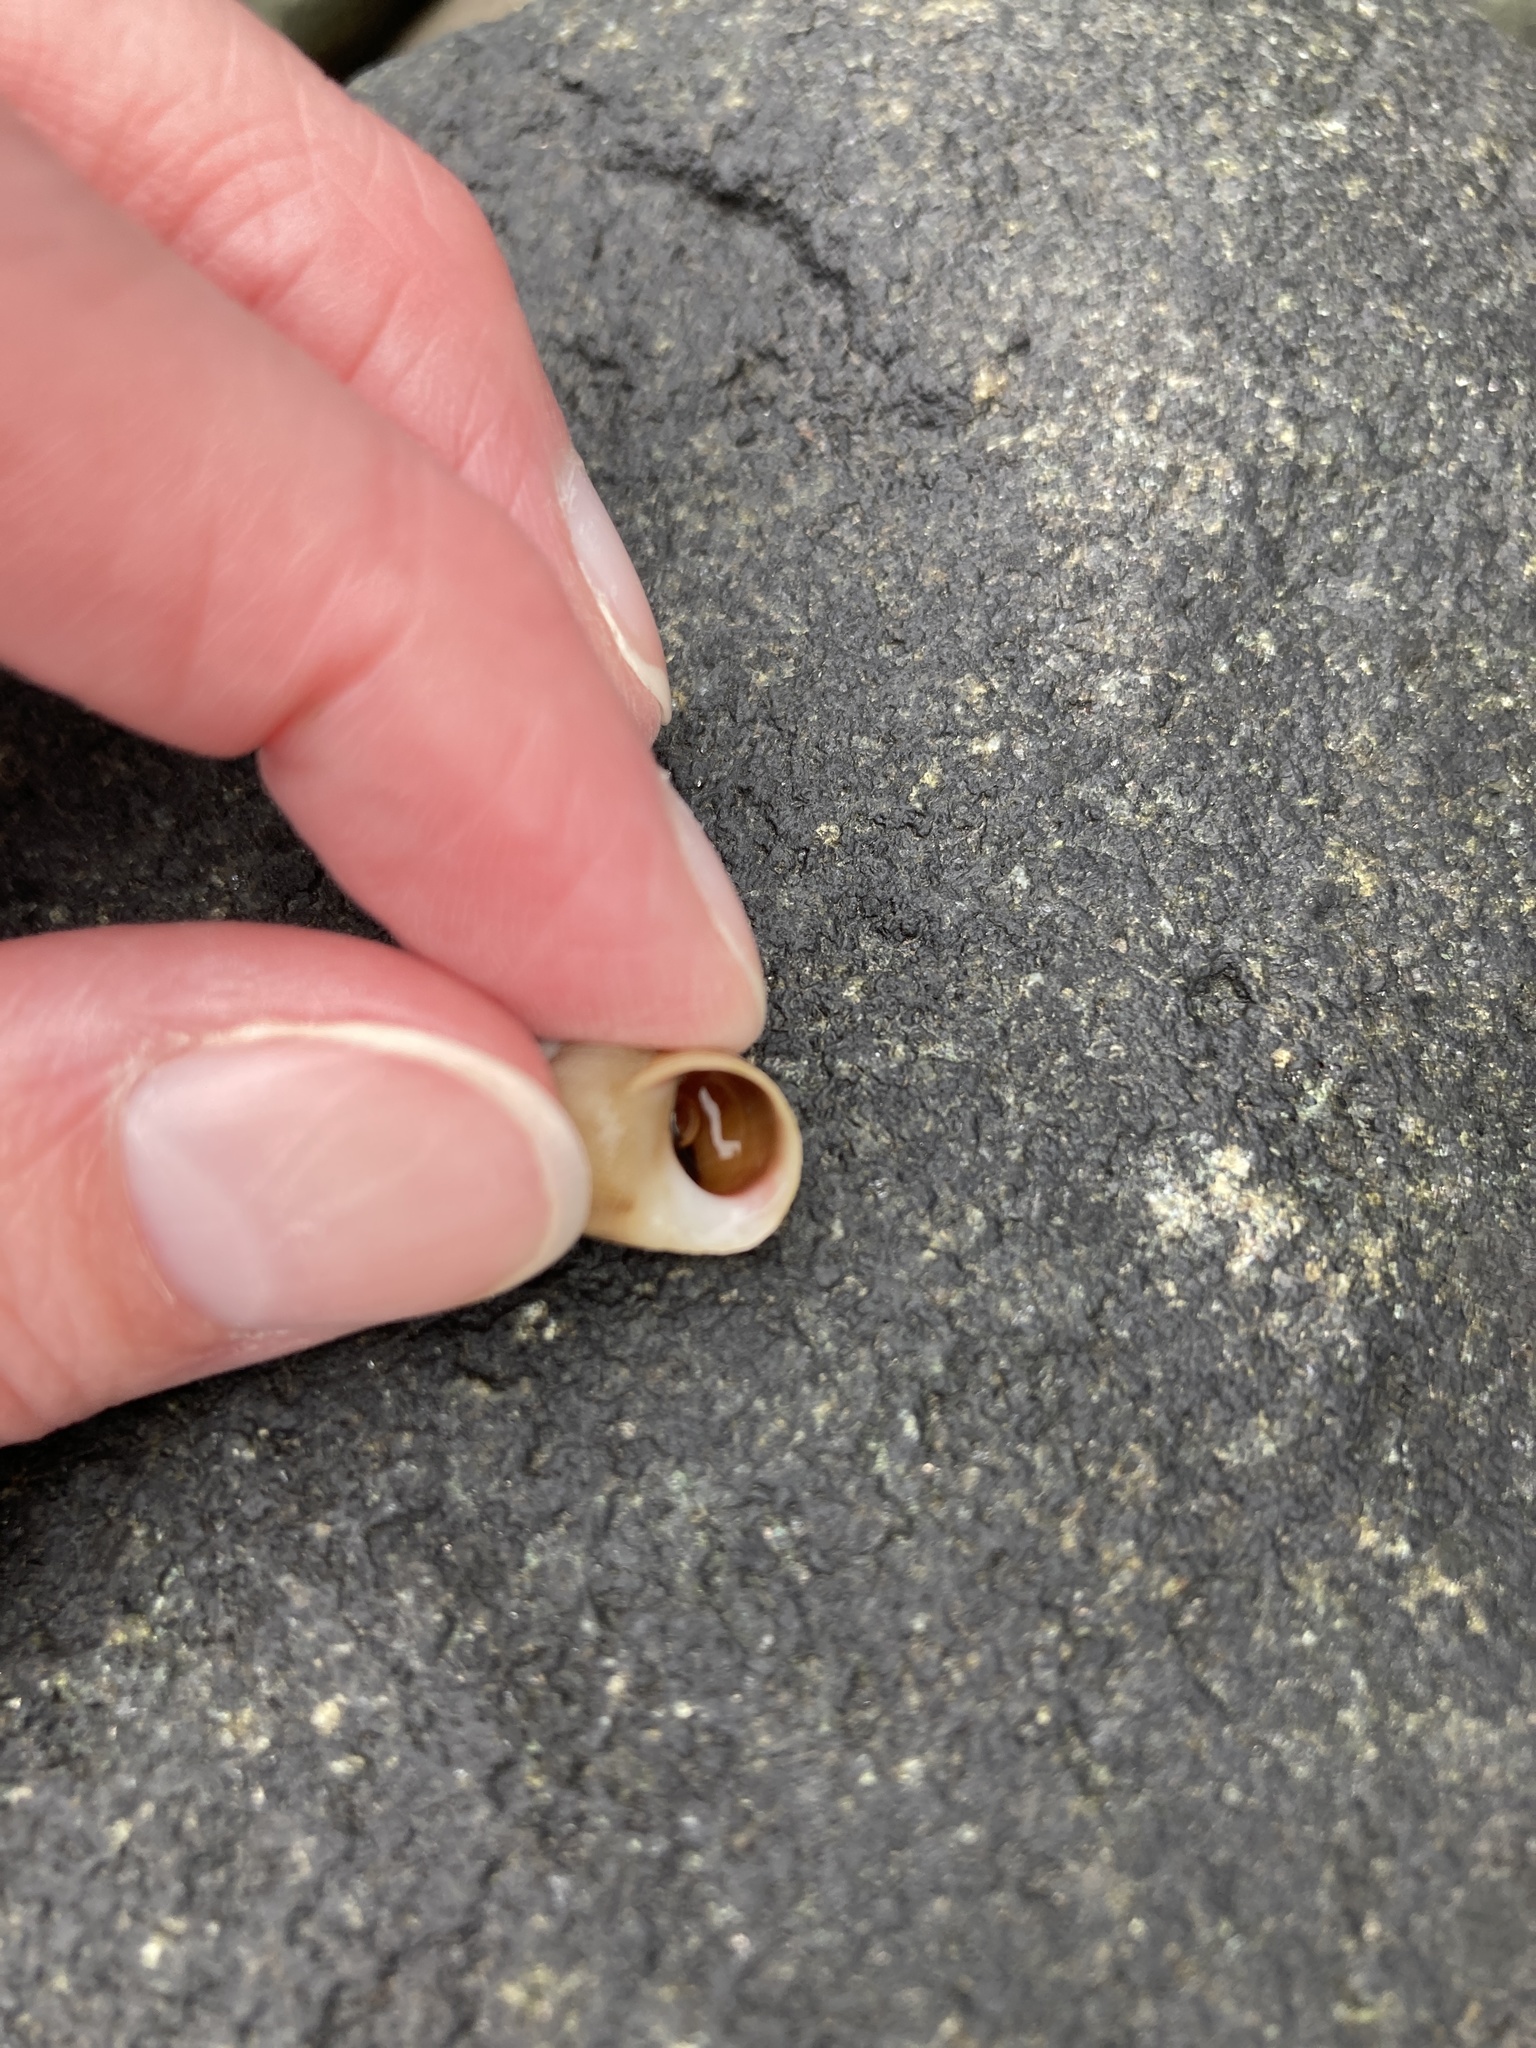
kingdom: Animalia
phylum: Mollusca
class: Gastropoda
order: Littorinimorpha
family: Littorinidae
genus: Littorina
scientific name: Littorina
